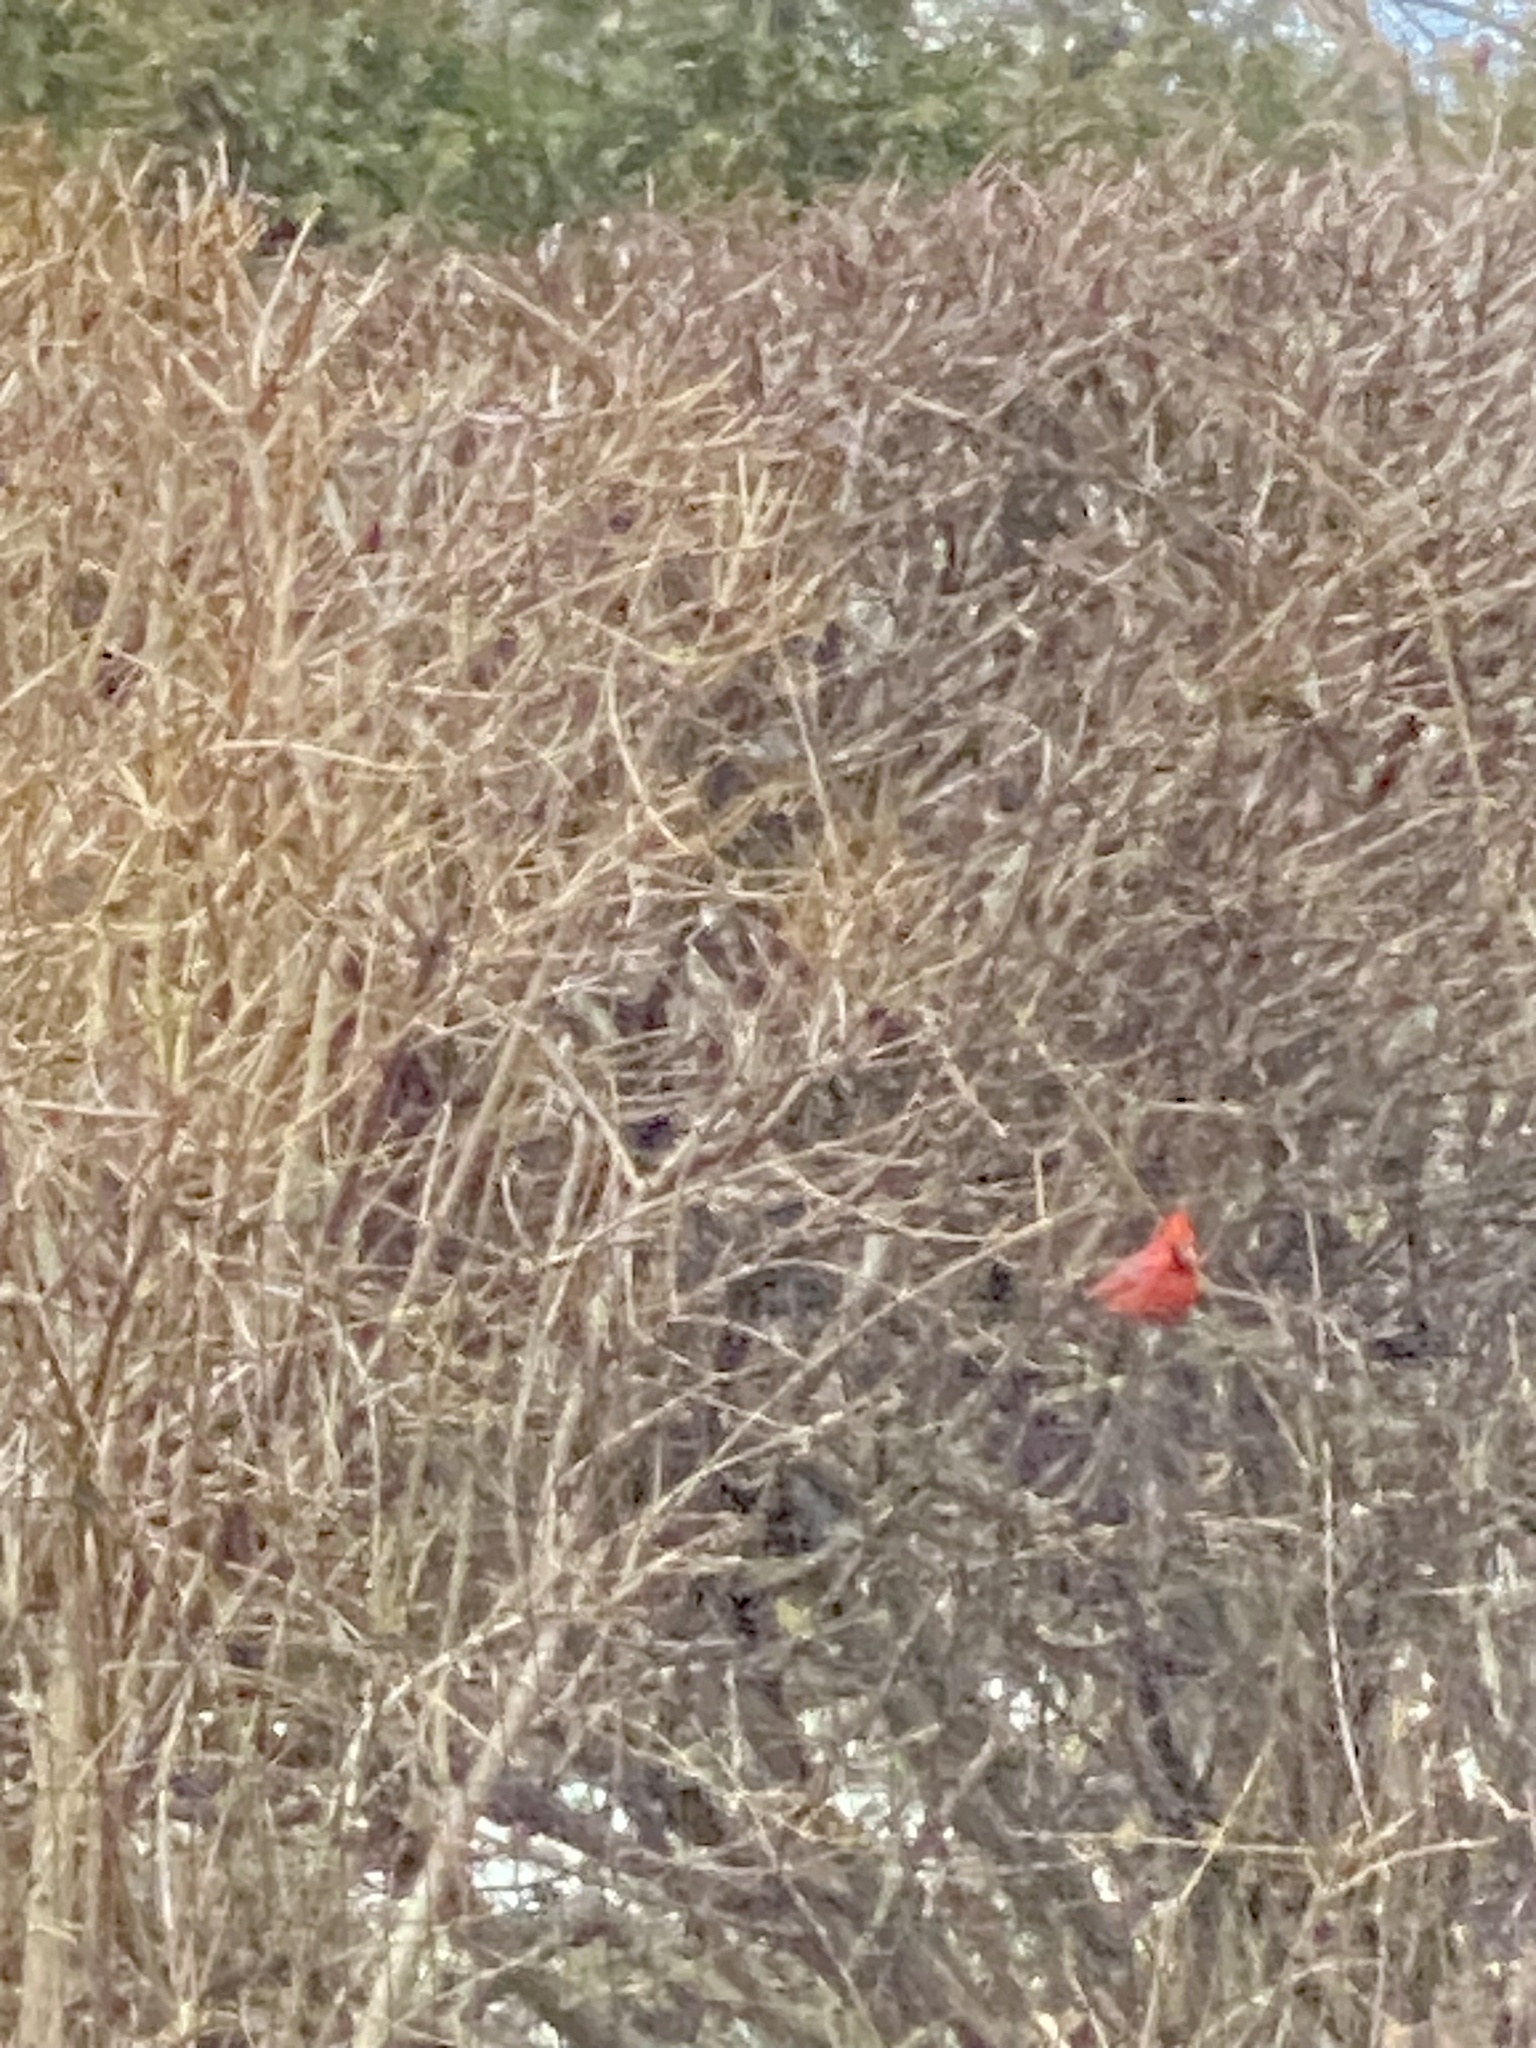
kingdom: Animalia
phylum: Chordata
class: Aves
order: Passeriformes
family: Cardinalidae
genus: Cardinalis
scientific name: Cardinalis cardinalis
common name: Northern cardinal
